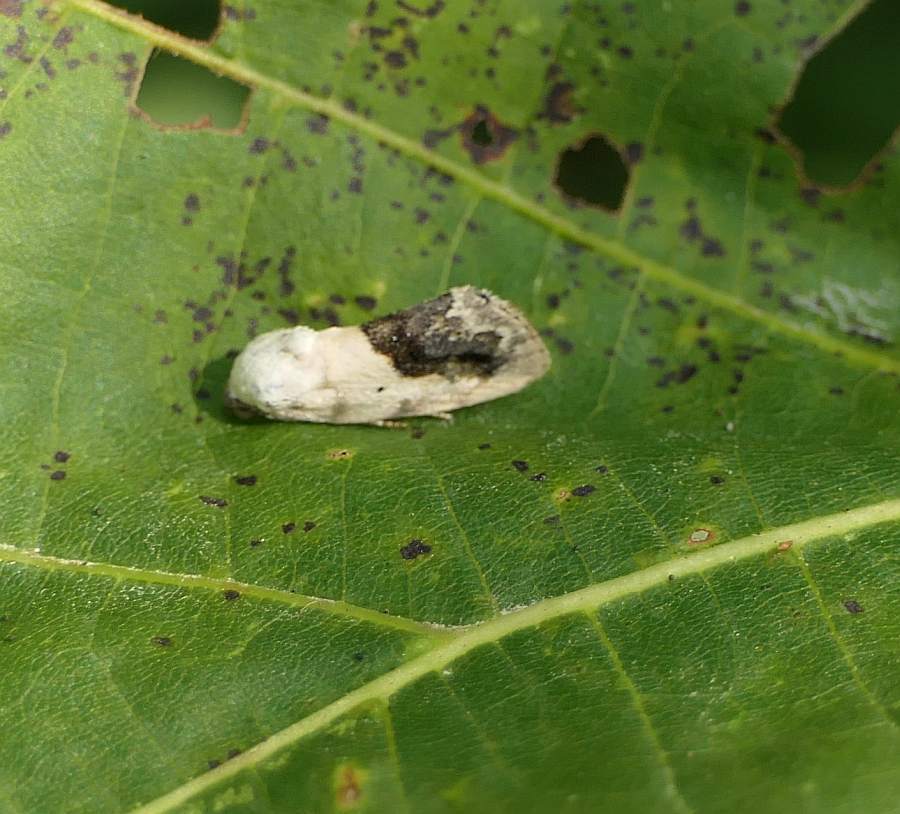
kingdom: Animalia
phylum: Arthropoda
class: Insecta
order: Lepidoptera
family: Noctuidae
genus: Acontia
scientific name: Acontia erastrioides
